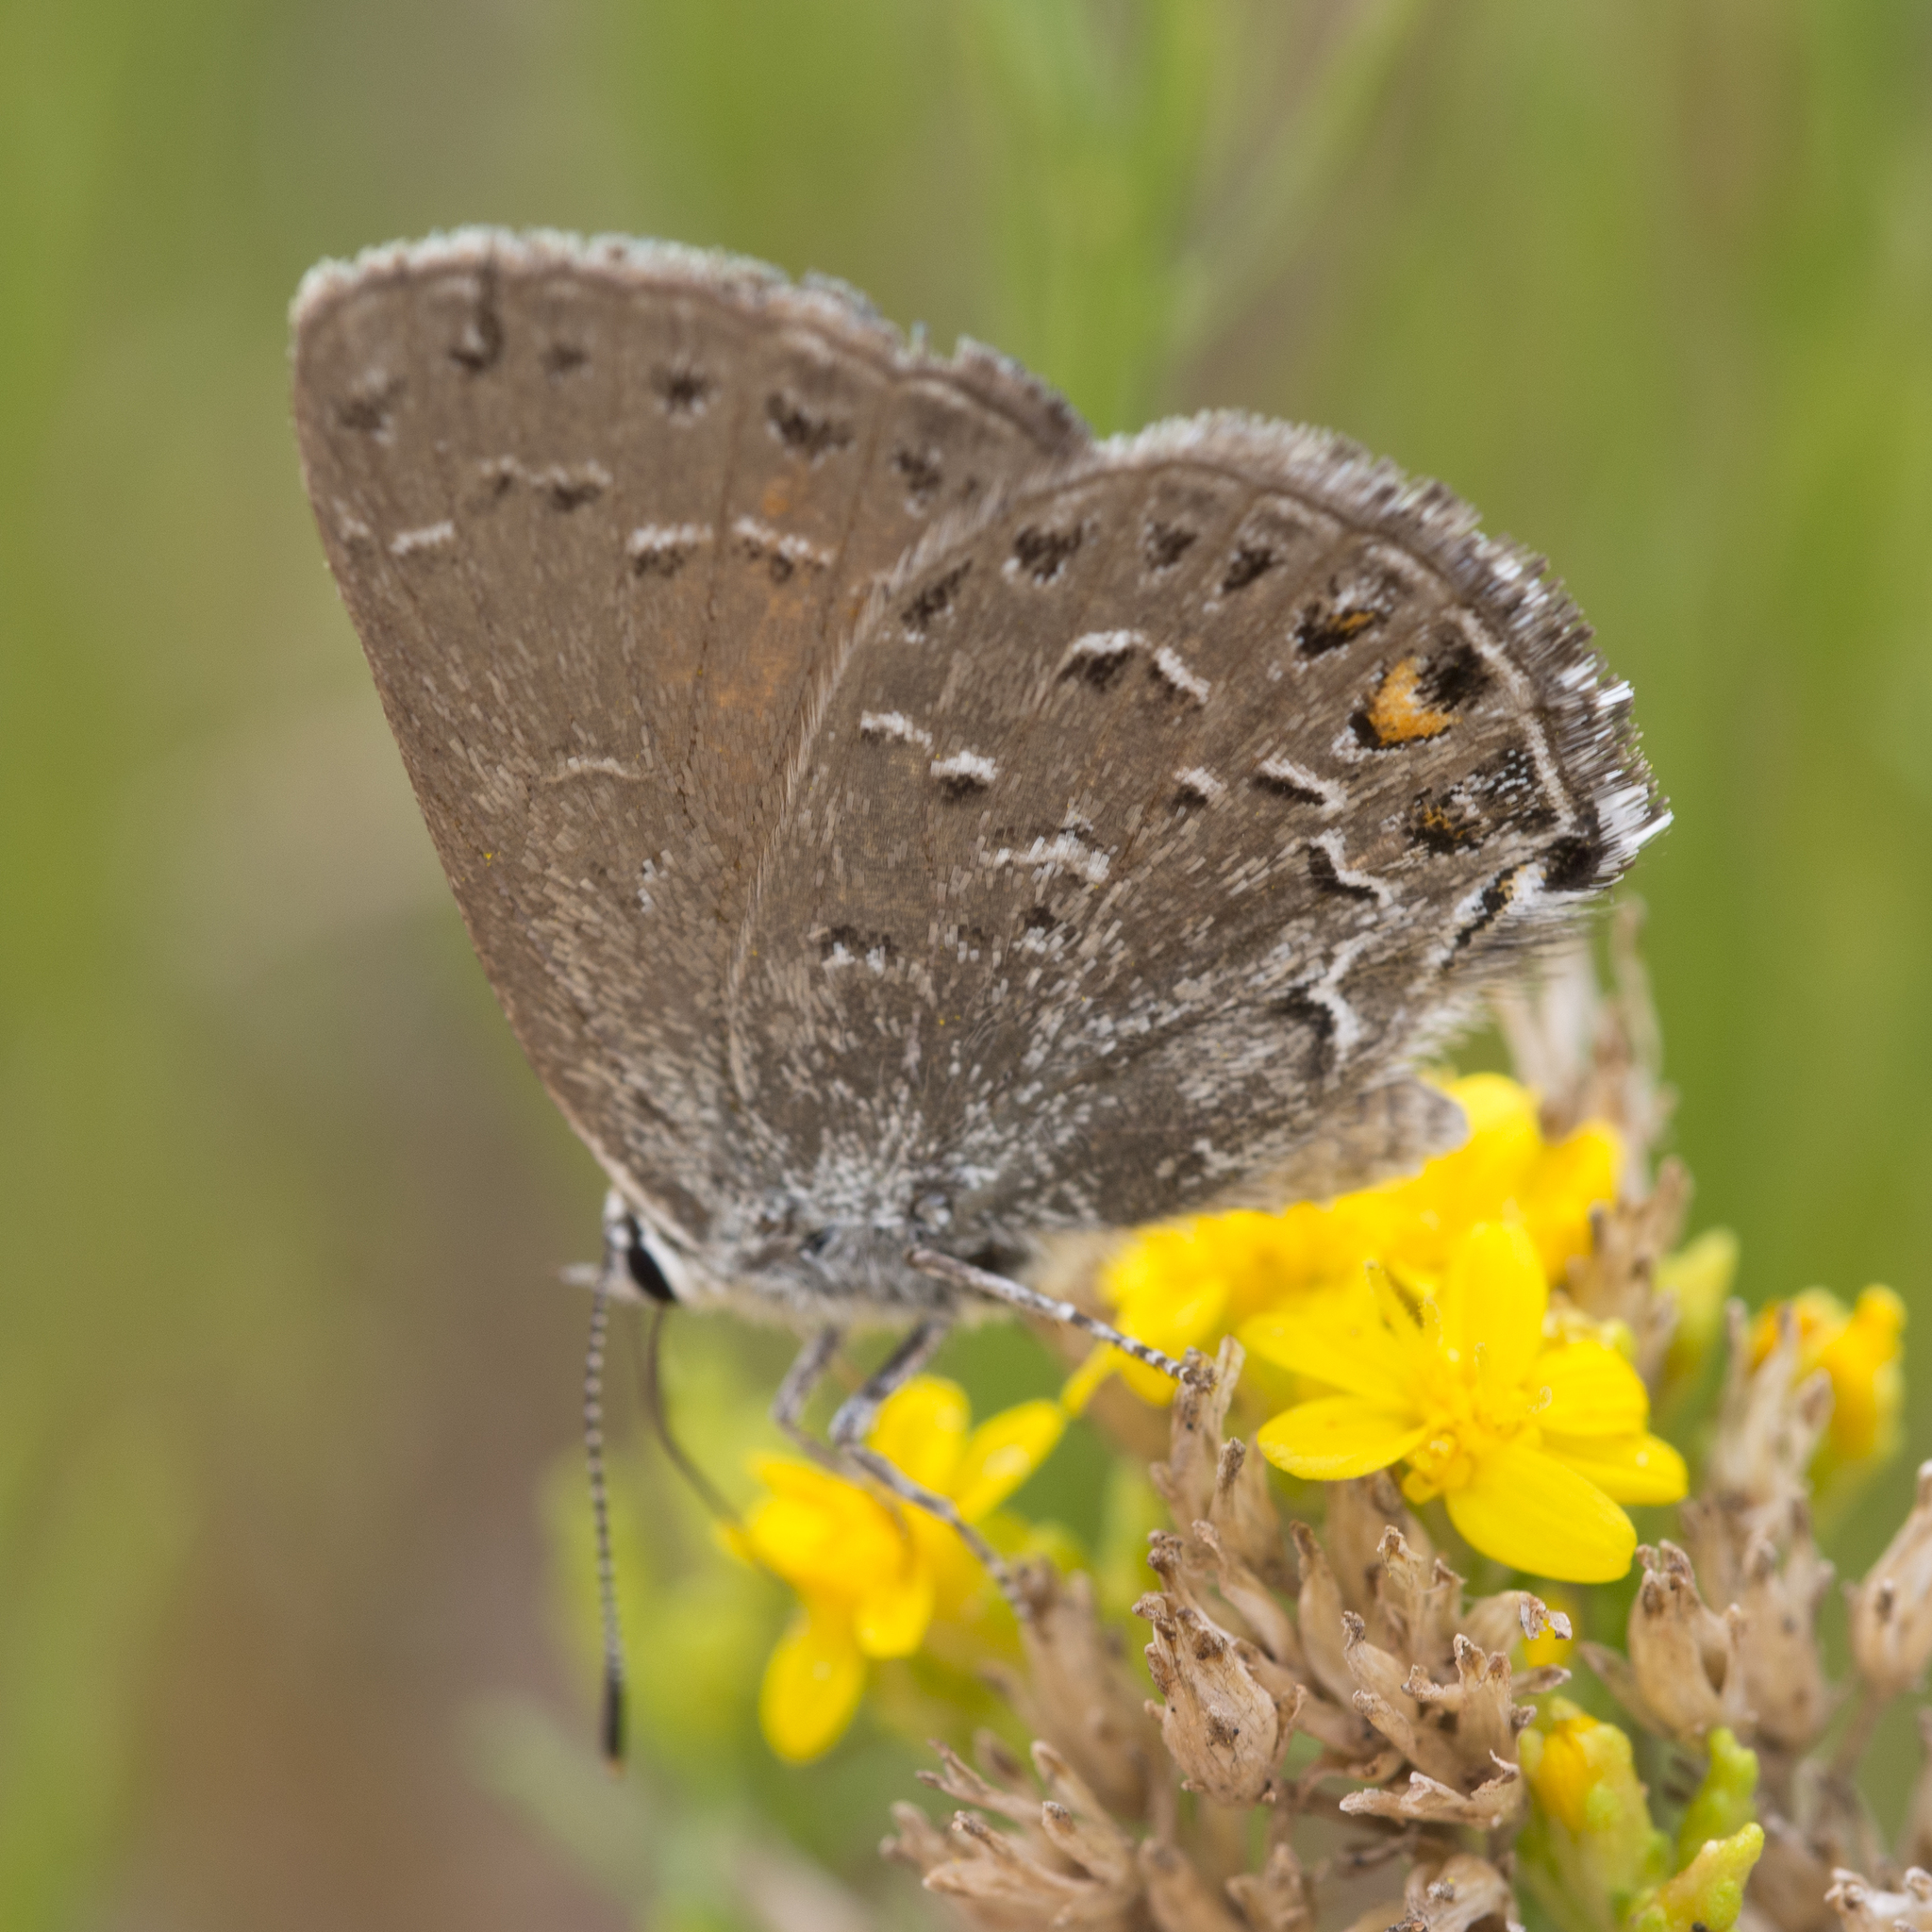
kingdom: Animalia
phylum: Arthropoda
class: Insecta
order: Lepidoptera
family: Lycaenidae
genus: Satyrium
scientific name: Satyrium behrii
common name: Behr's hairstreak
